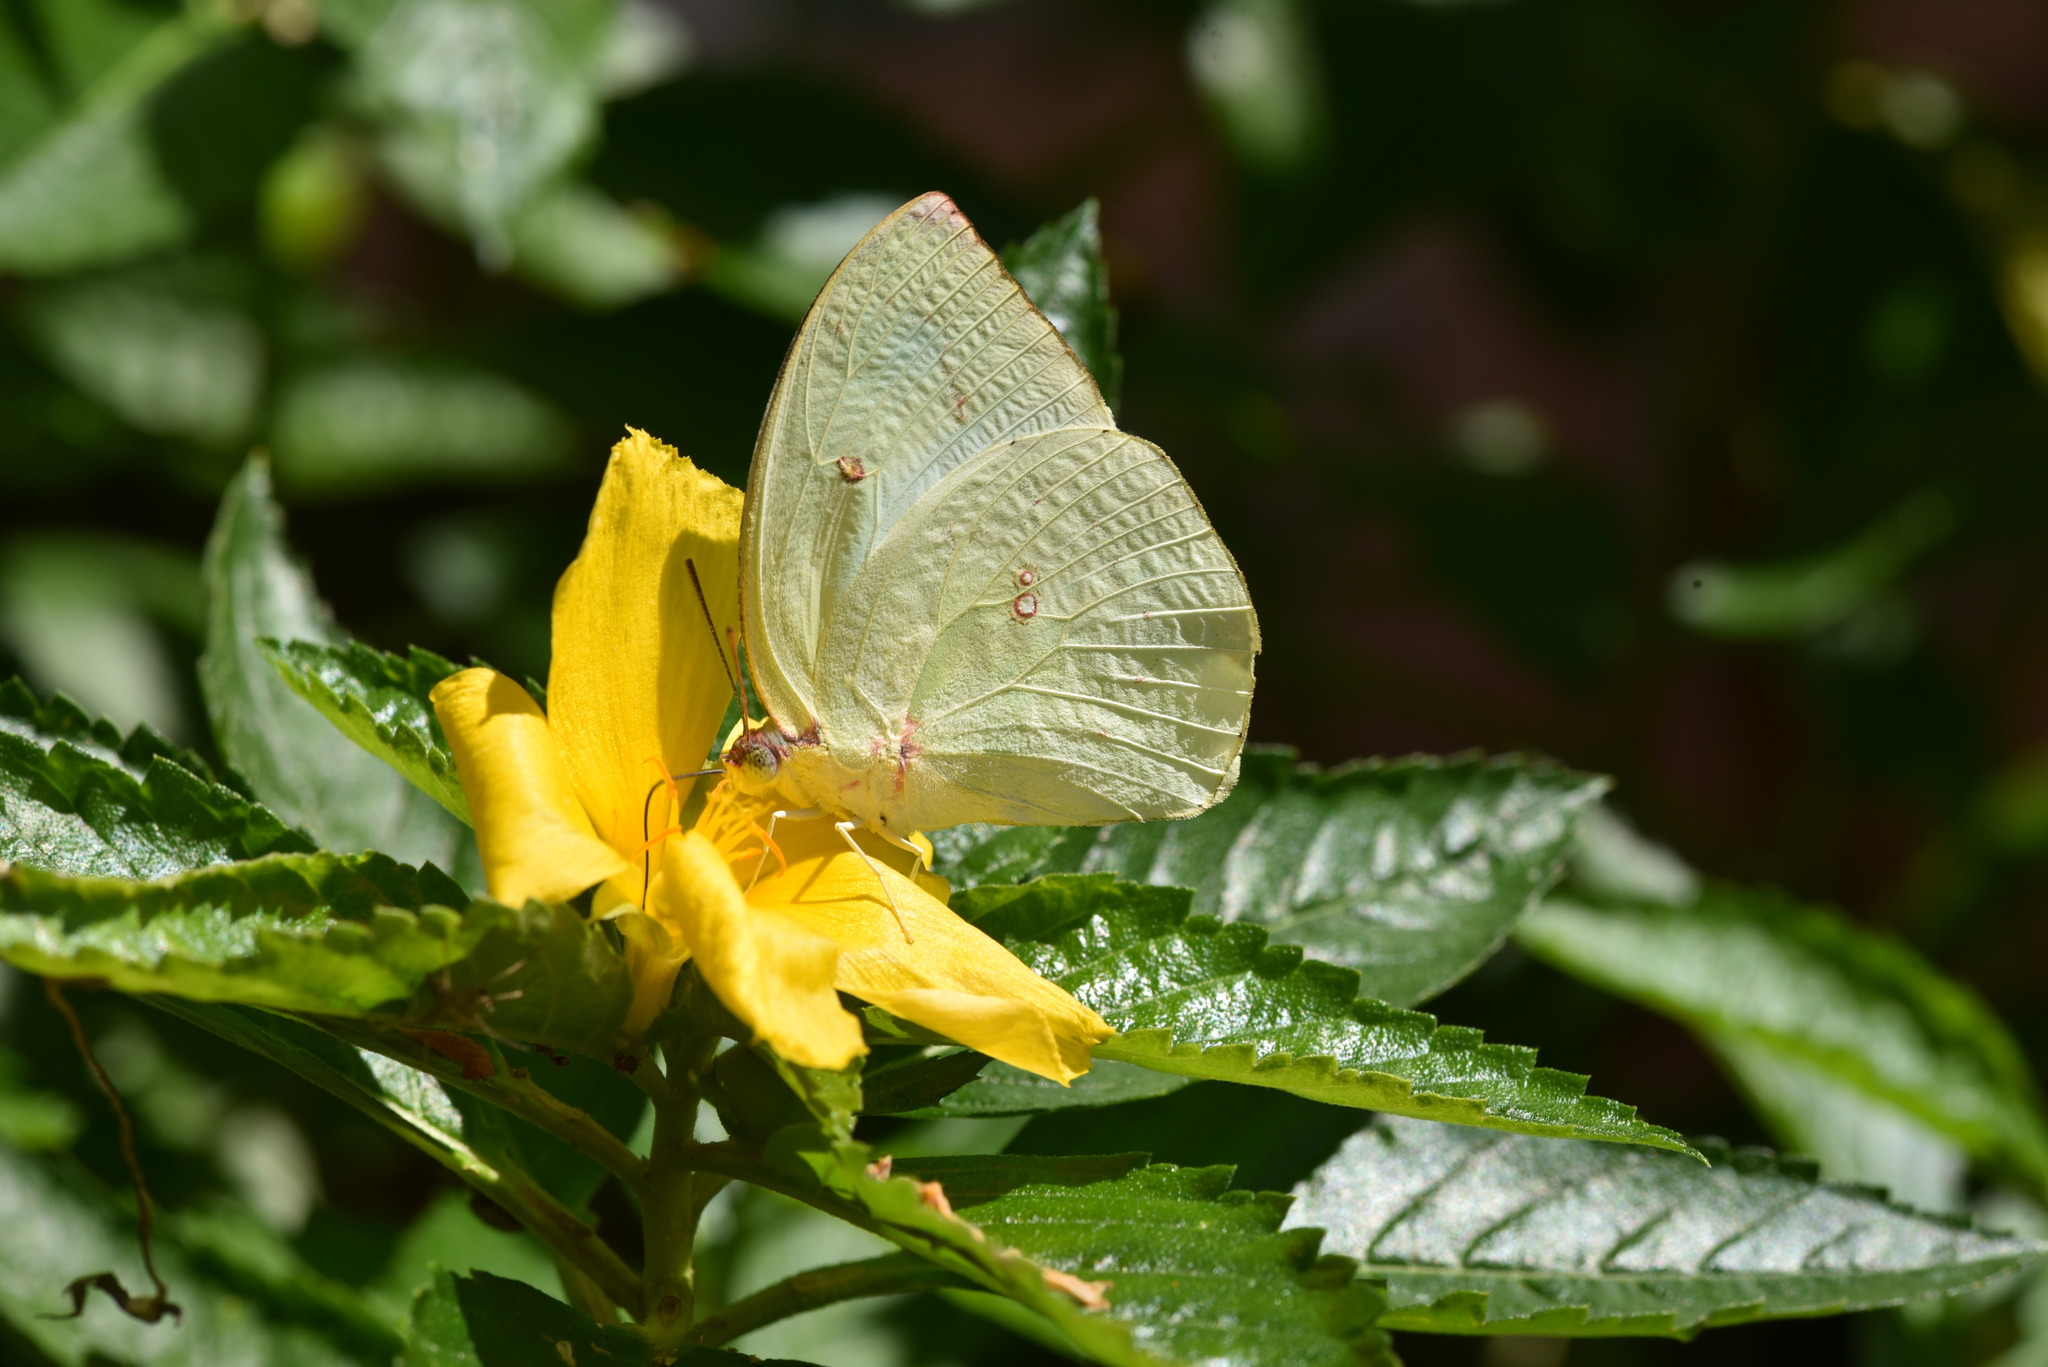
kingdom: Animalia
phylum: Arthropoda
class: Insecta
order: Lepidoptera
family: Pieridae
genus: Catopsilia
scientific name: Catopsilia pomona
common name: Common emigrant
